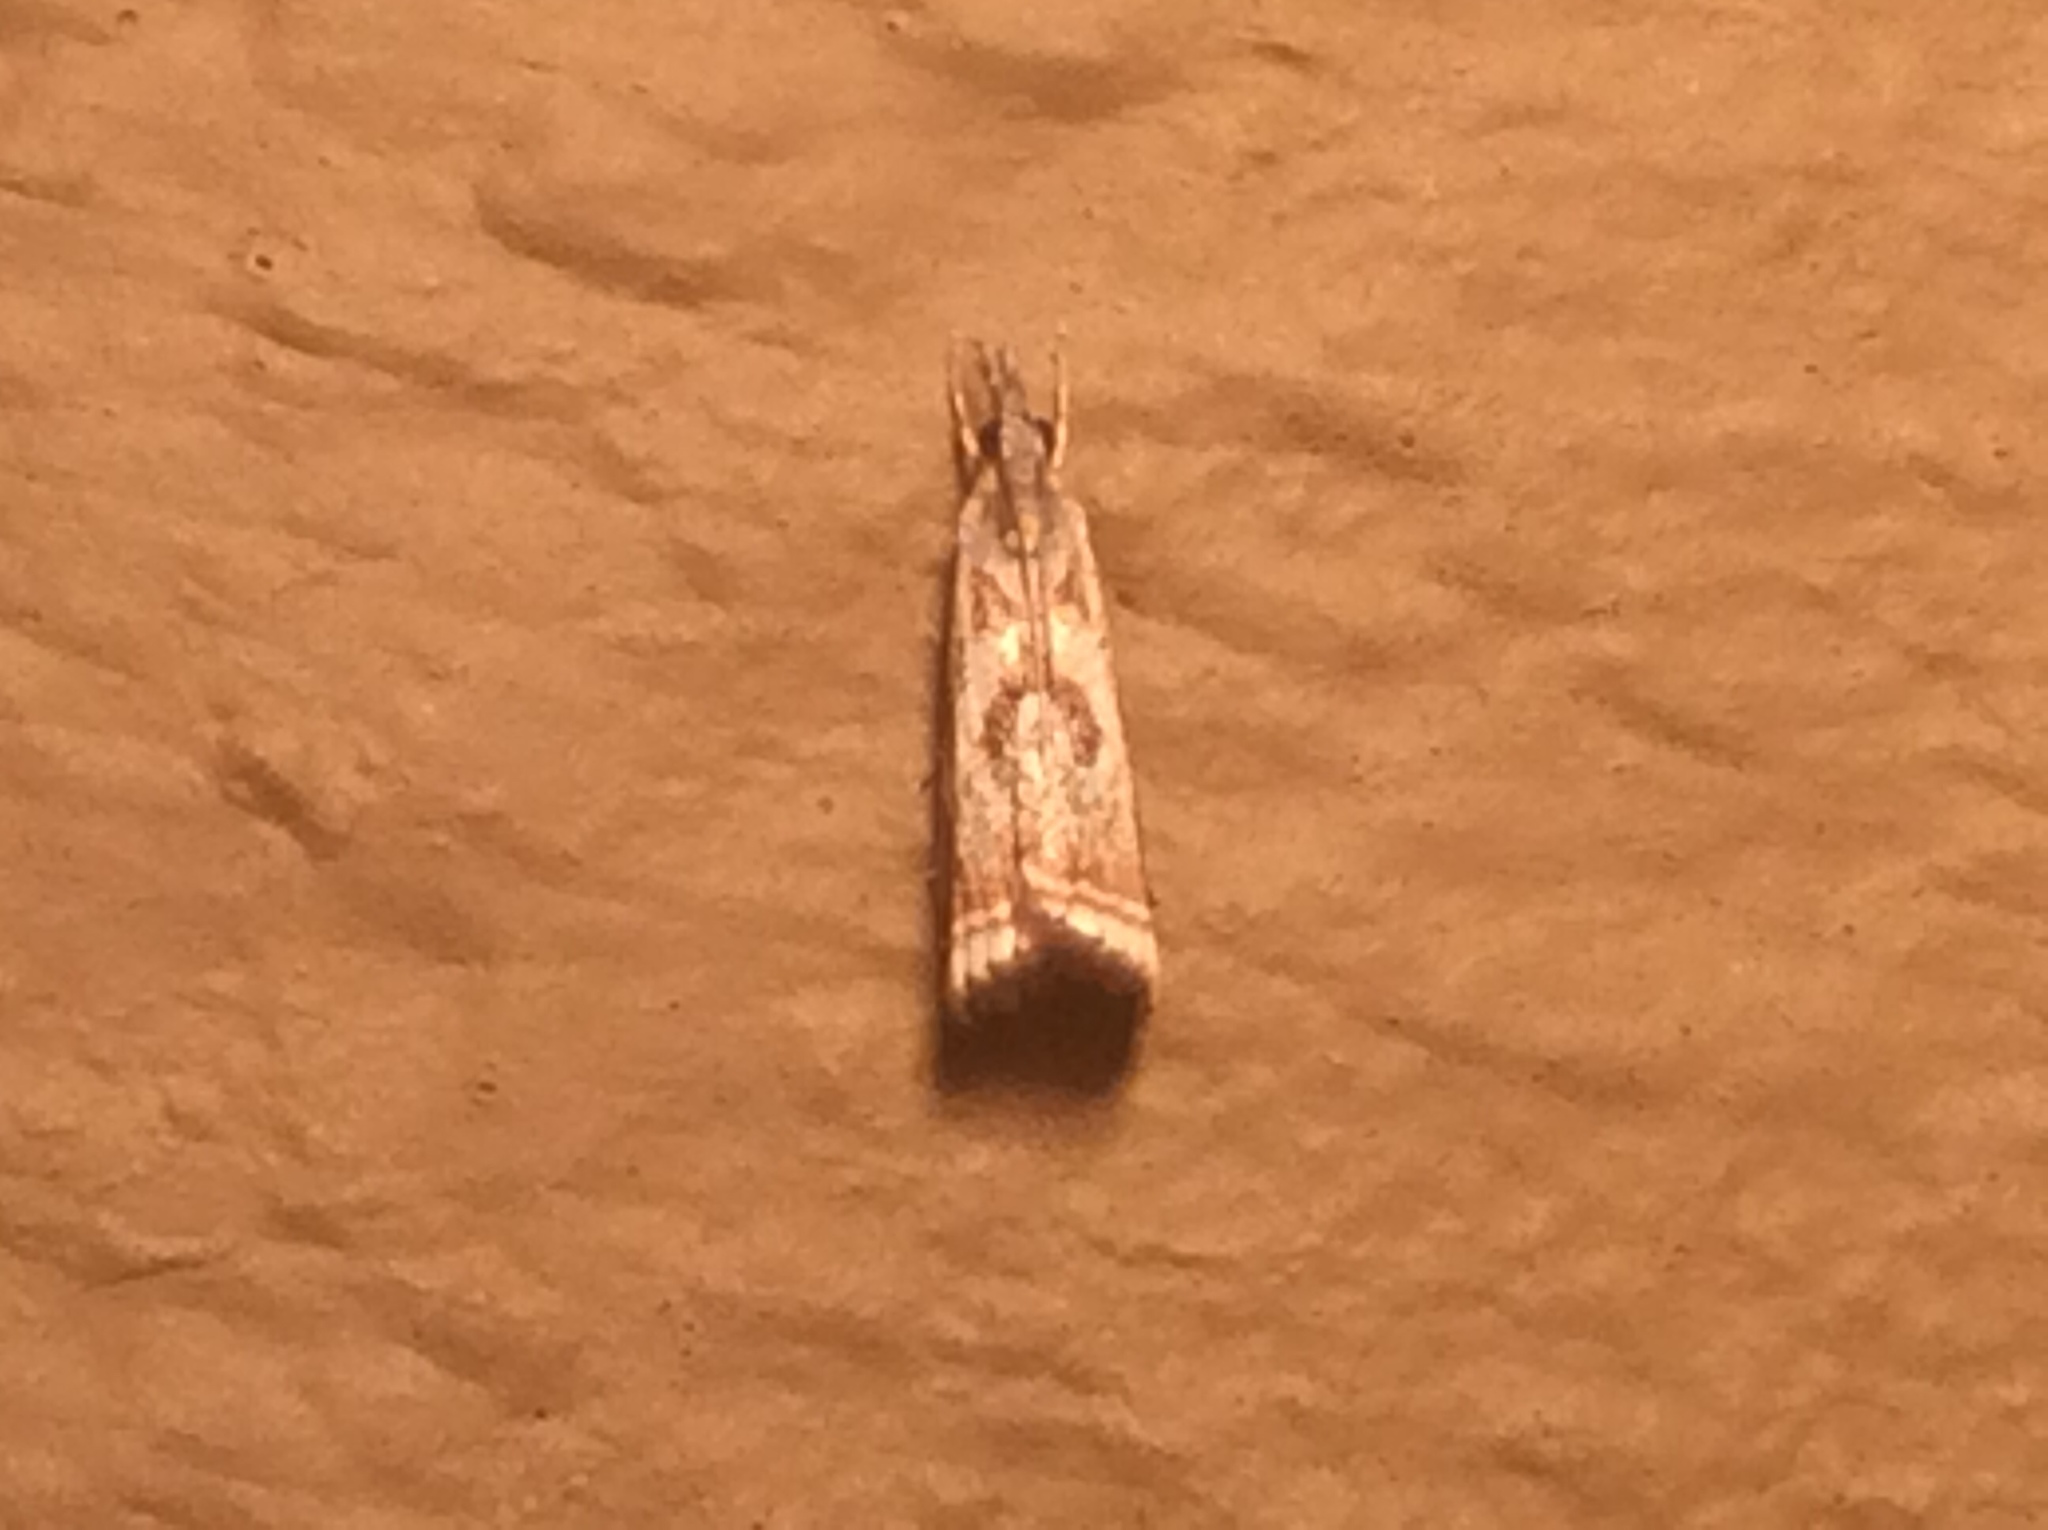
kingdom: Animalia
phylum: Arthropoda
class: Insecta
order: Lepidoptera
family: Crambidae
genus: Microcrambus
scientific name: Microcrambus elegans
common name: Elegant grass-veneer
